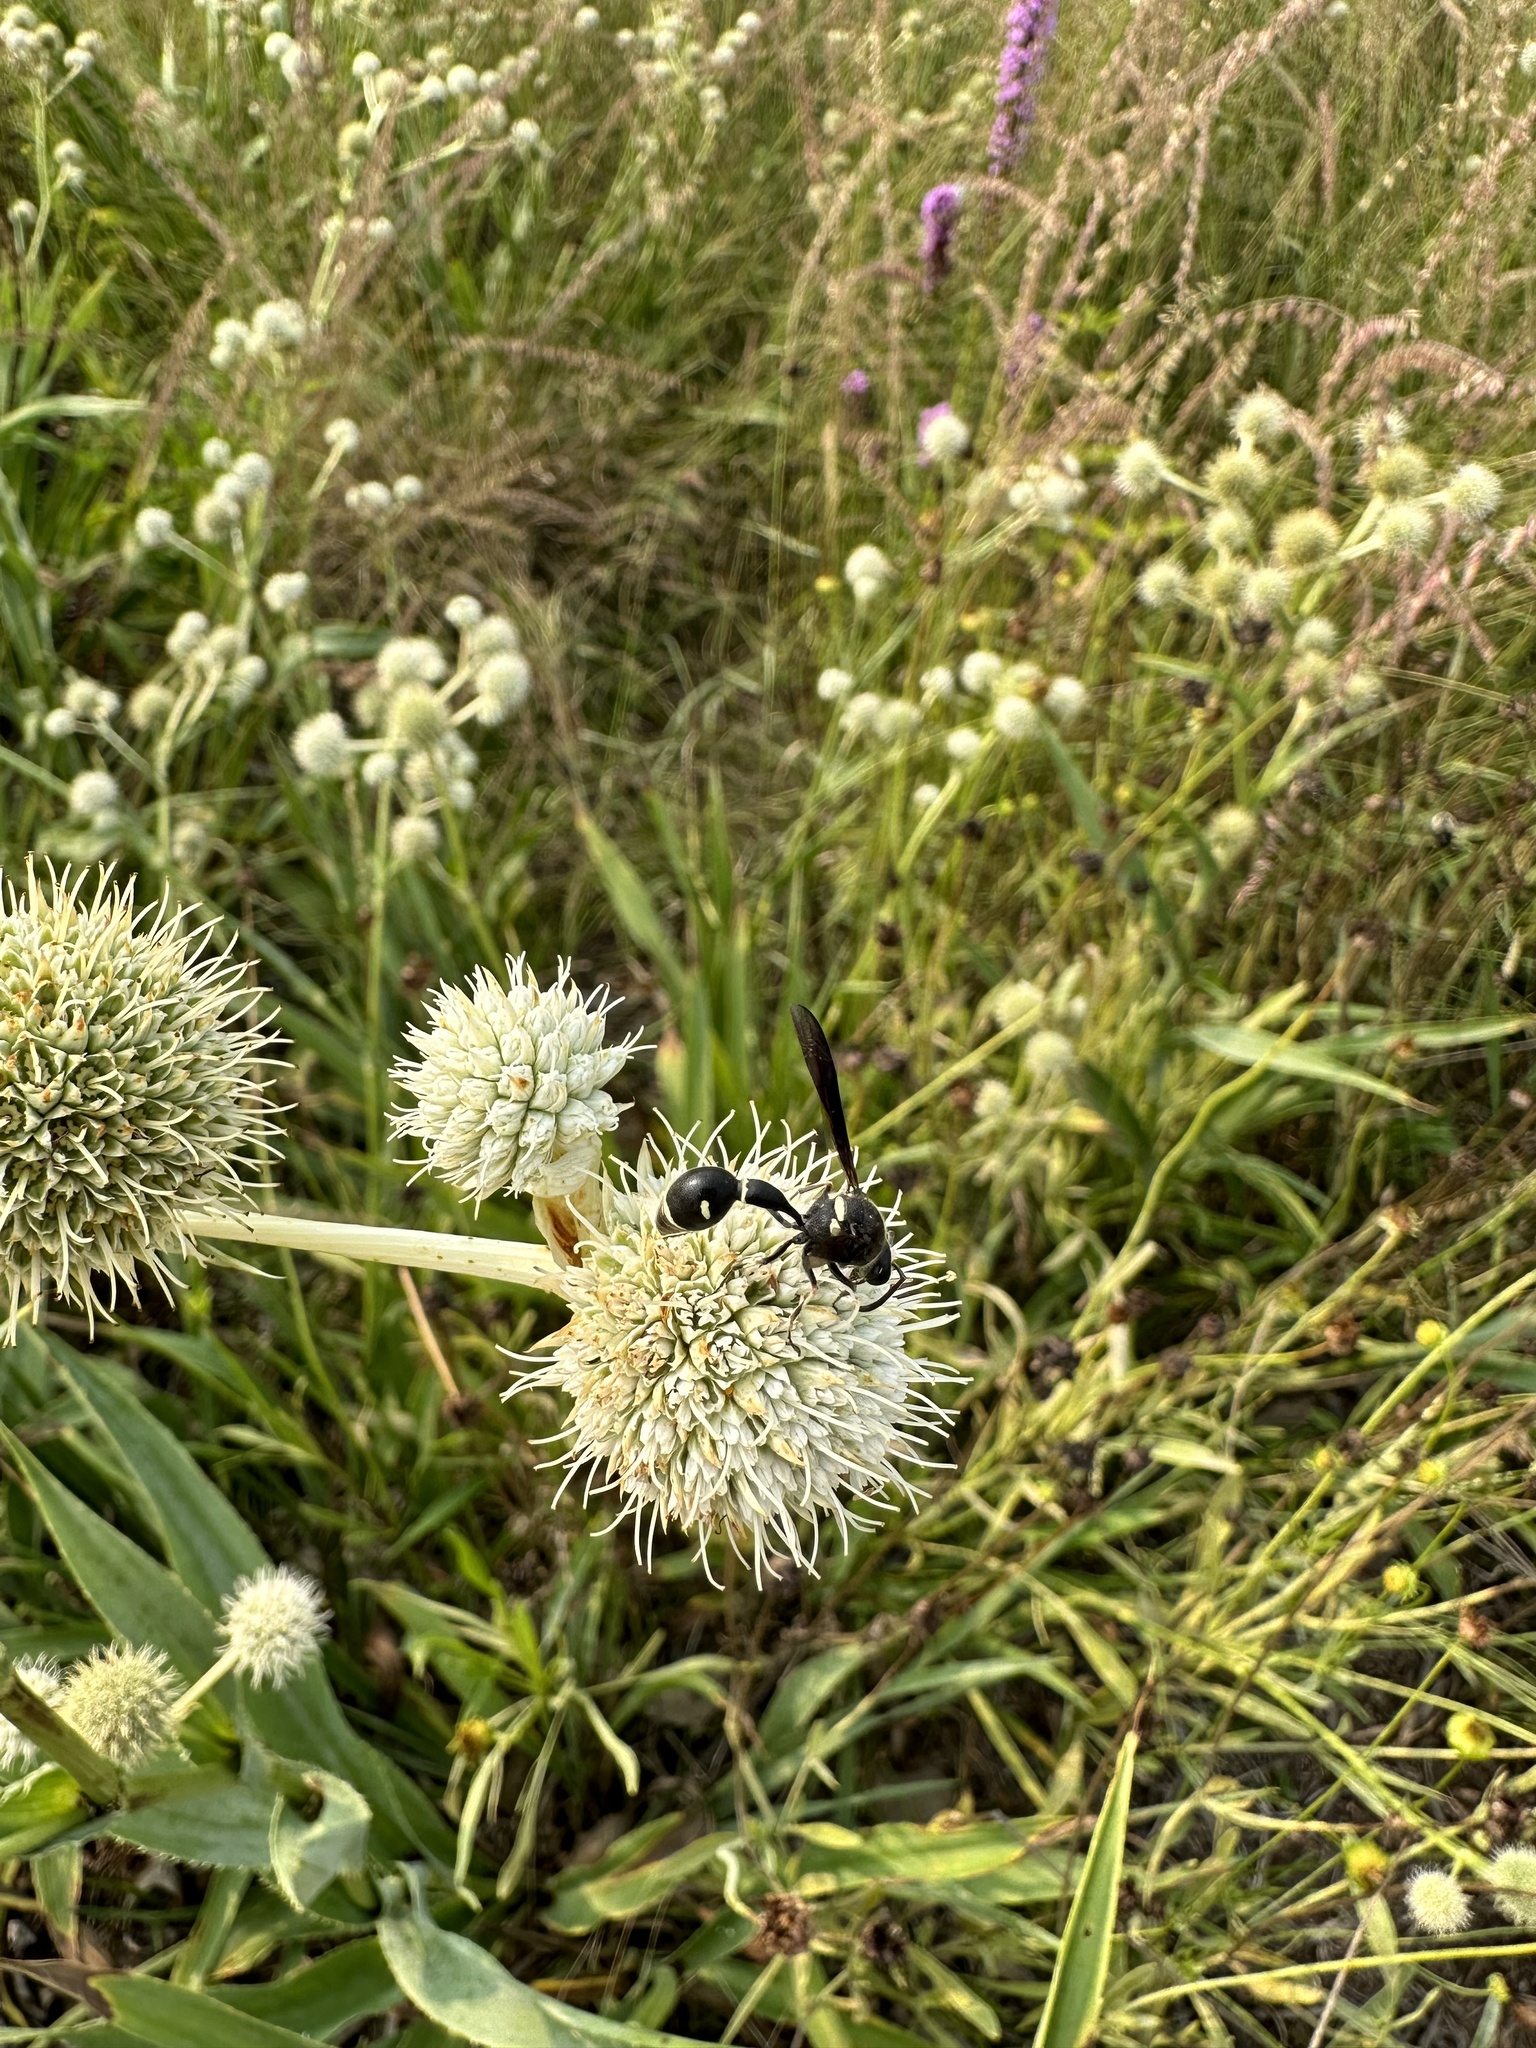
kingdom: Animalia
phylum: Arthropoda
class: Insecta
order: Hymenoptera
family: Vespidae
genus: Eumenes
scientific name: Eumenes fraternus
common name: Fraternal potter wasp
